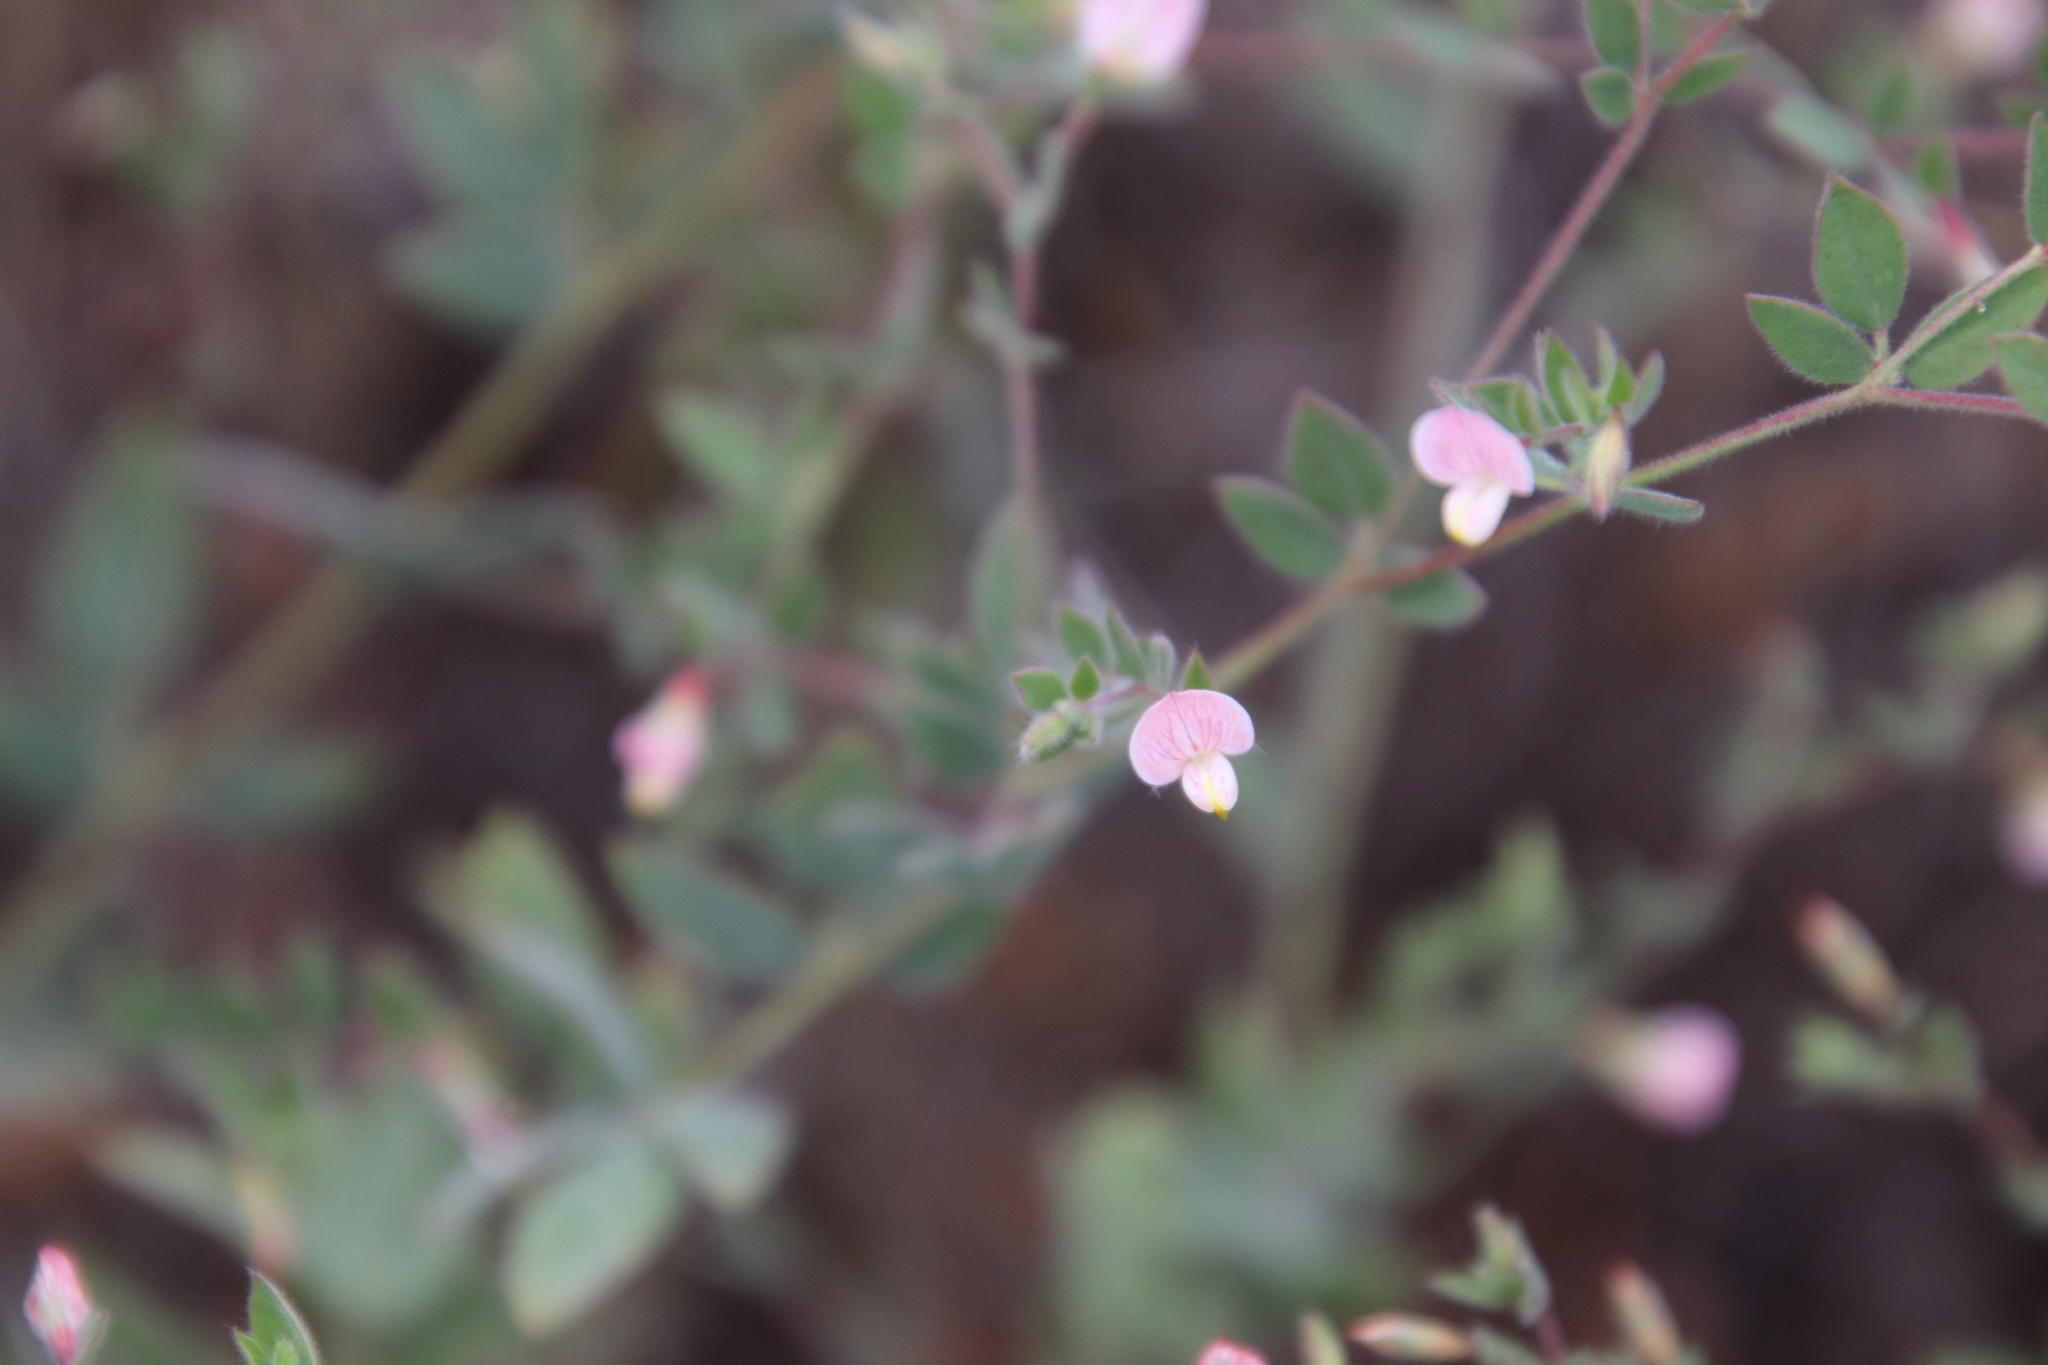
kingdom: Plantae
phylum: Tracheophyta
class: Magnoliopsida
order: Fabales
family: Fabaceae
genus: Acmispon
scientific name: Acmispon americanus
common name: American bird's-foot trefoil
